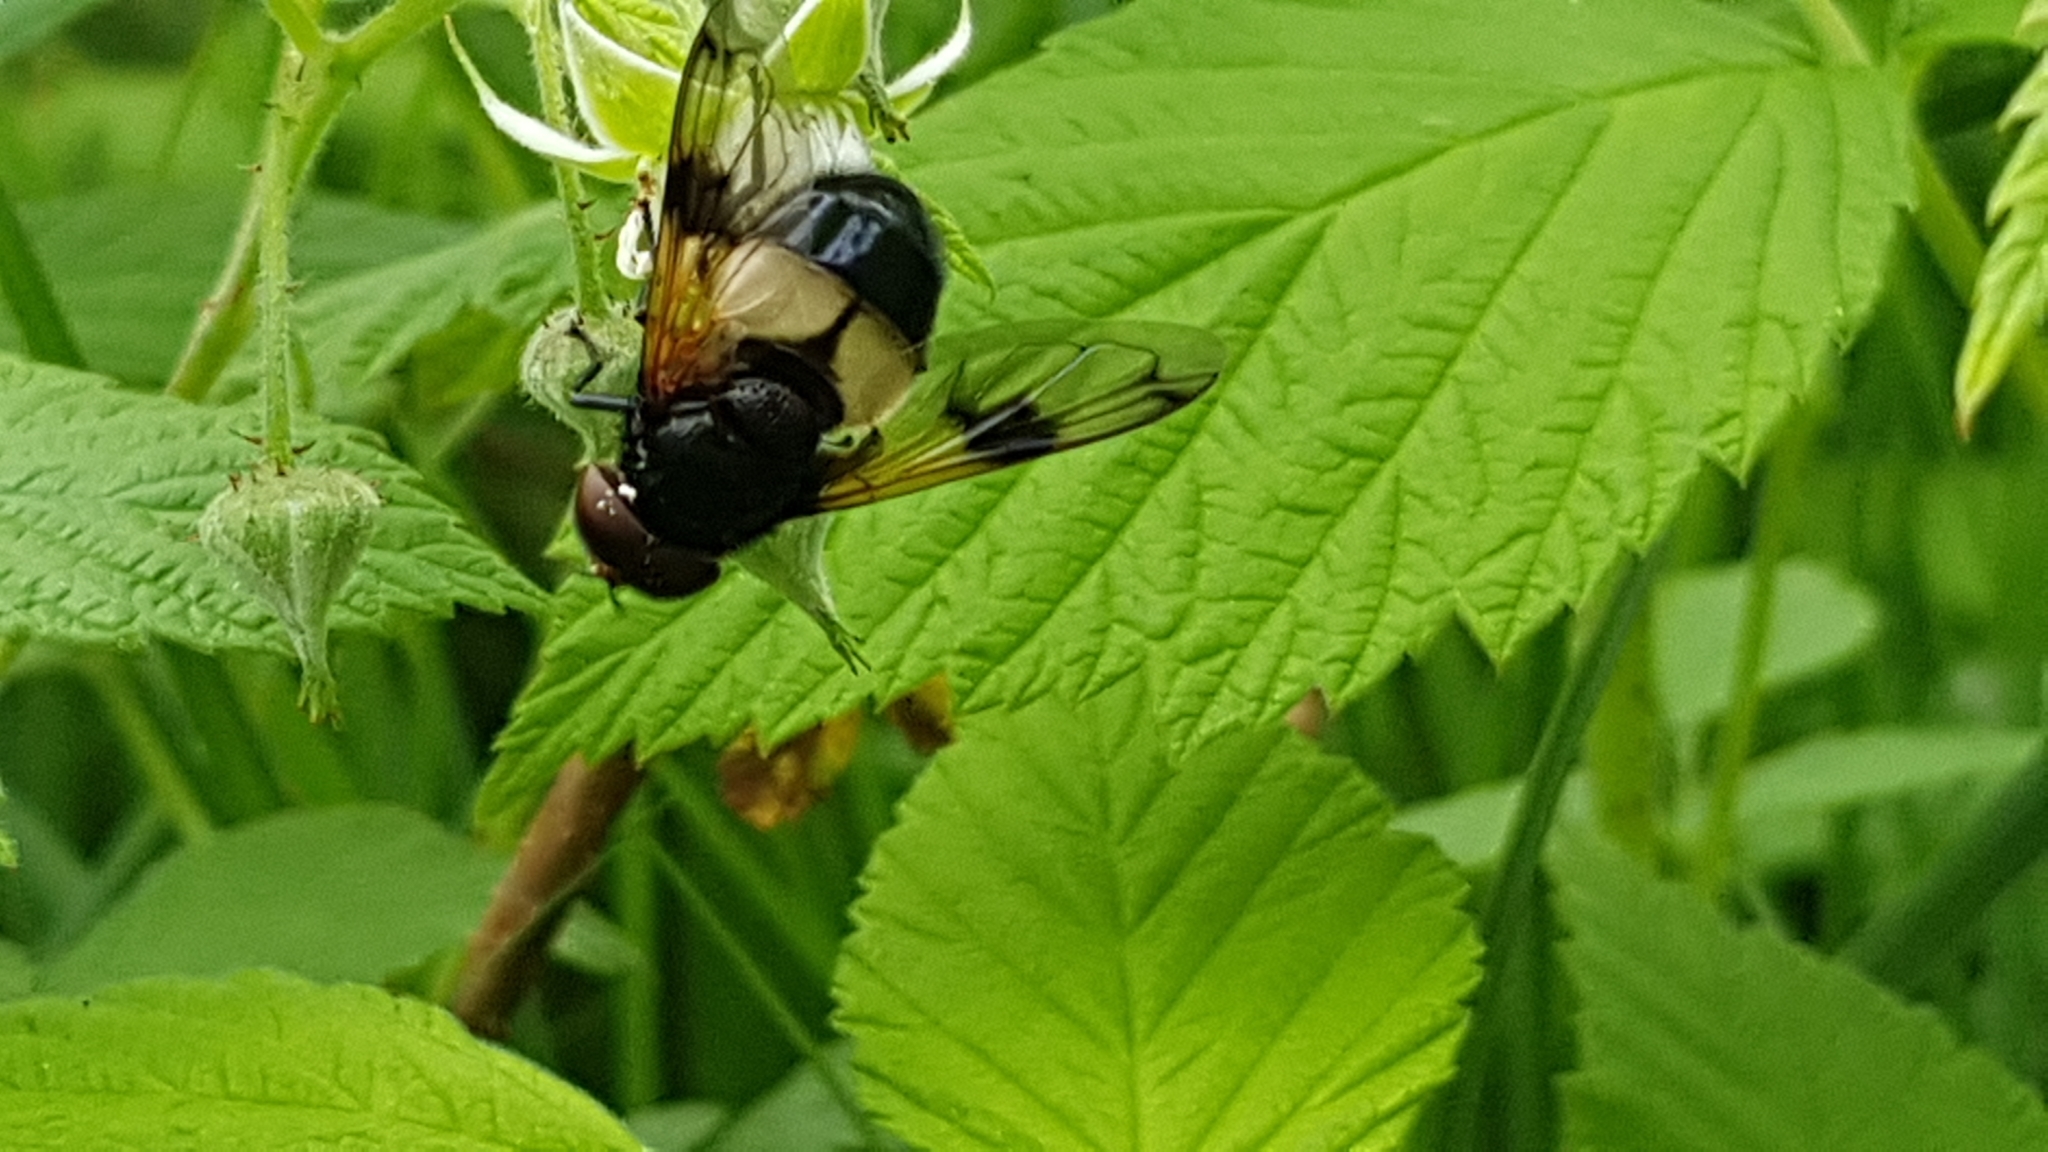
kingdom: Animalia
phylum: Arthropoda
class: Insecta
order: Diptera
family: Syrphidae
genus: Volucella
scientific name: Volucella pellucens
